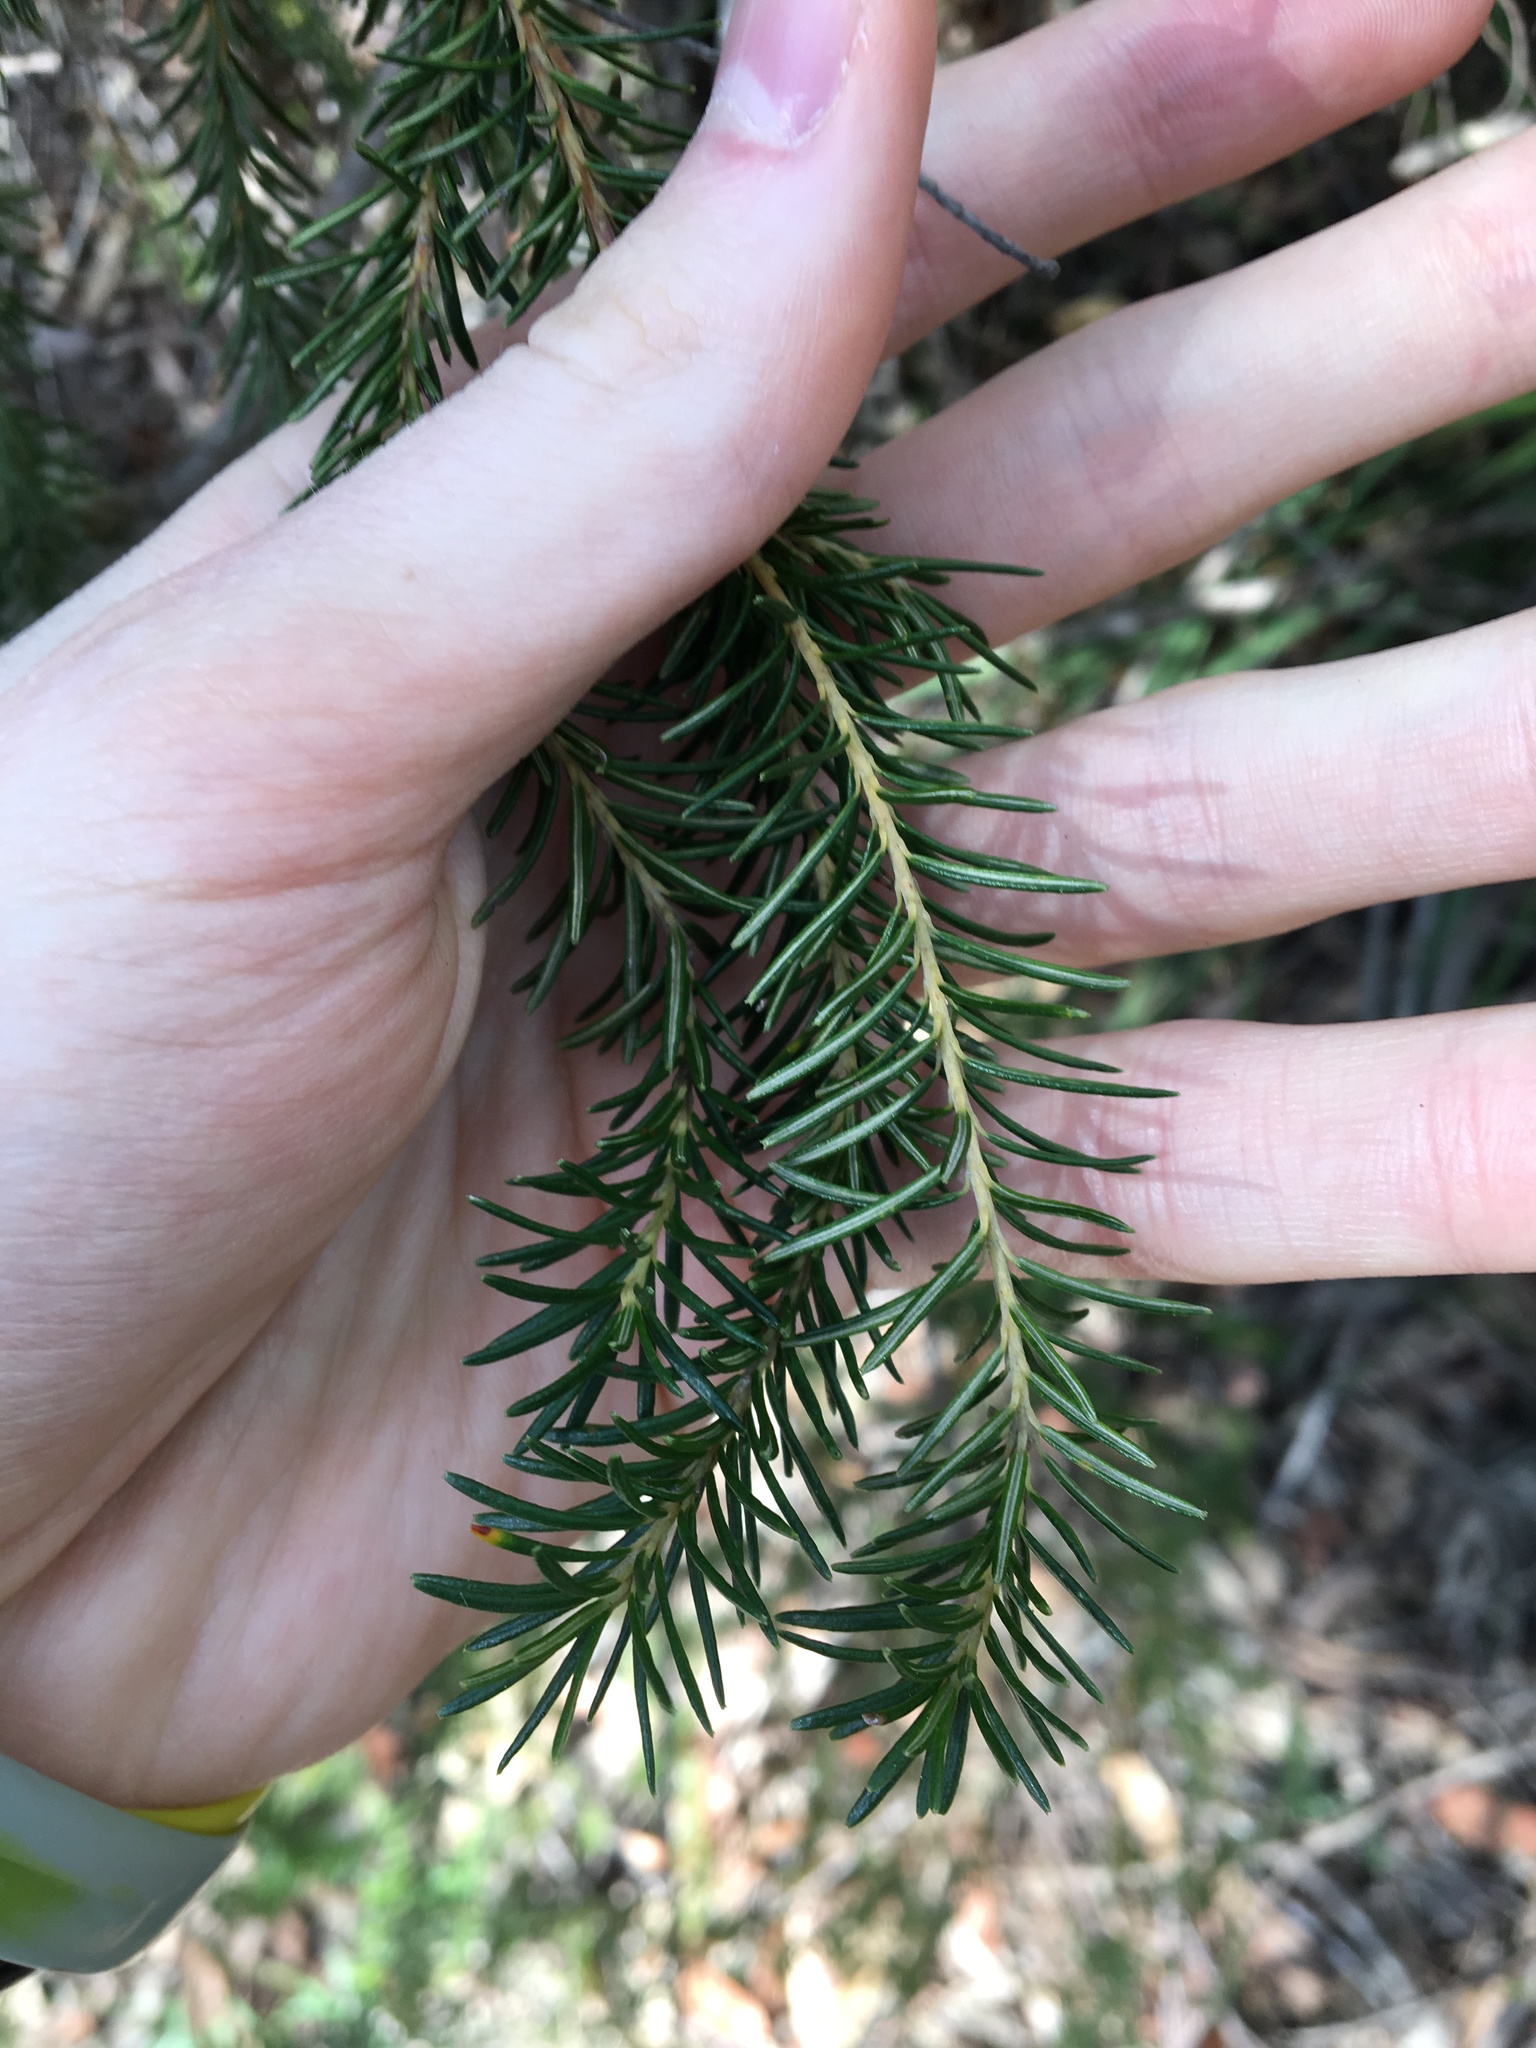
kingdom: Plantae
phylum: Tracheophyta
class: Magnoliopsida
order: Proteales
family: Proteaceae
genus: Banksia
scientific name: Banksia ericifolia
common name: Heath-leaf banksia
